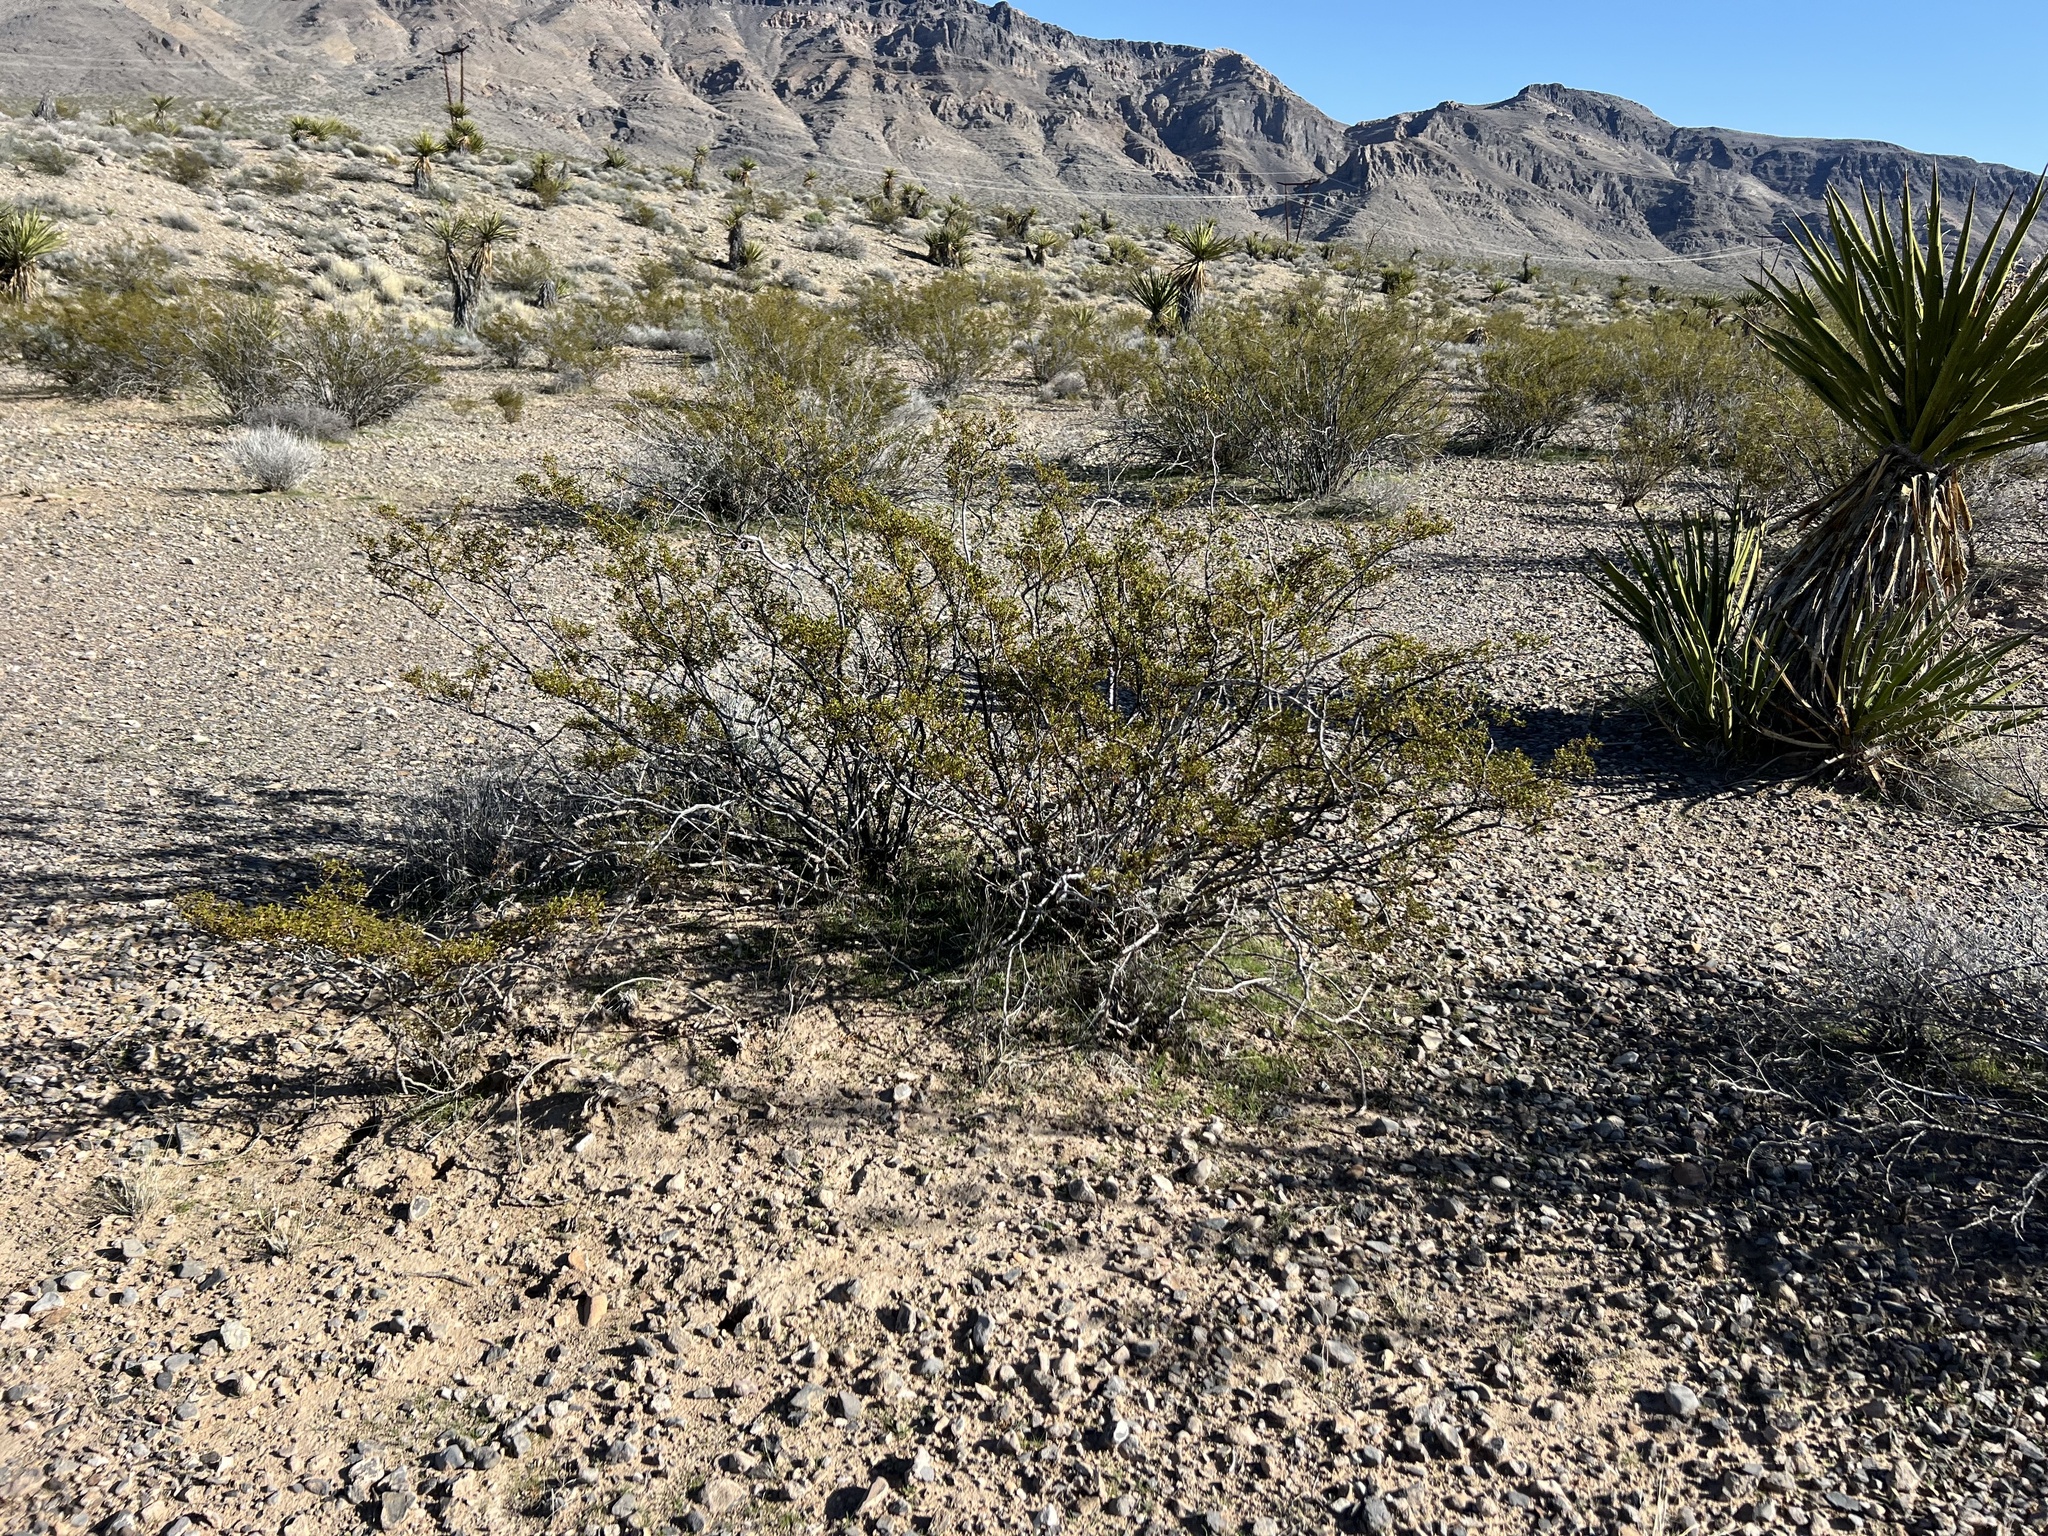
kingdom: Plantae
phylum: Tracheophyta
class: Magnoliopsida
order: Zygophyllales
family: Zygophyllaceae
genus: Larrea
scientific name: Larrea tridentata
